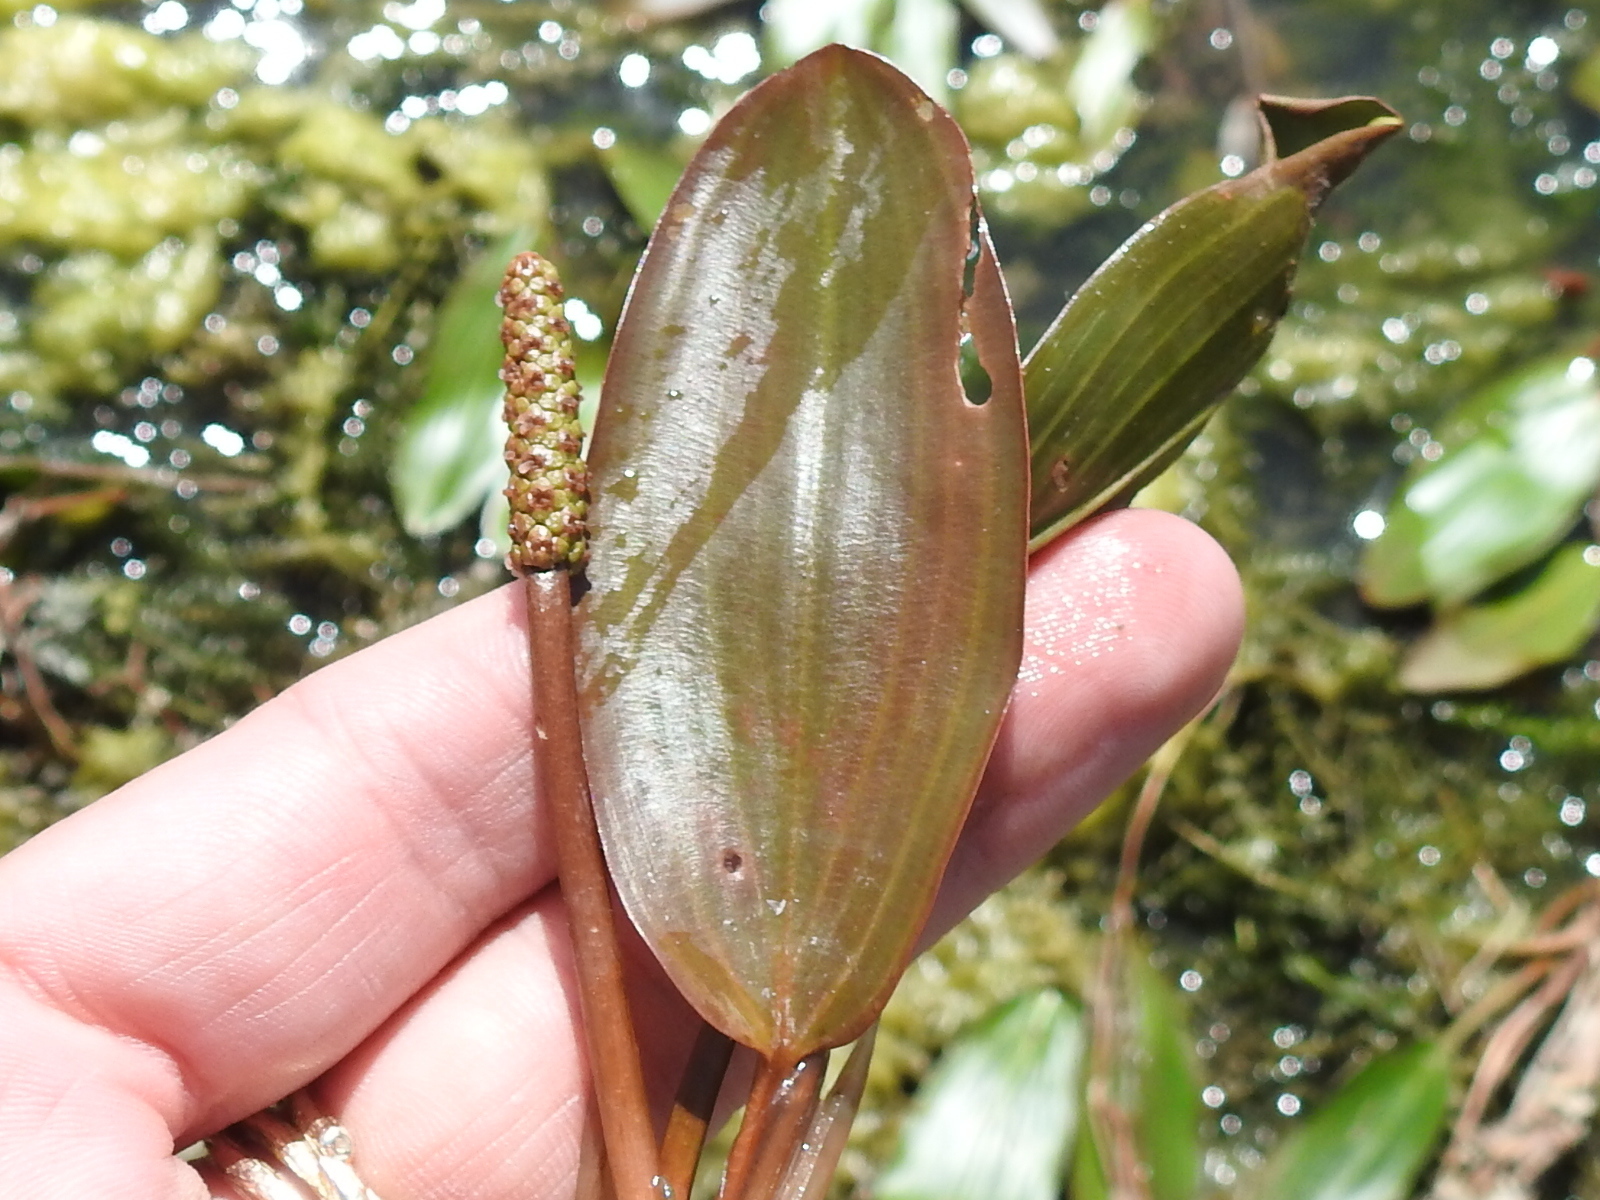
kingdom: Plantae
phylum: Tracheophyta
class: Liliopsida
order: Alismatales
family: Potamogetonaceae
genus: Potamogeton
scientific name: Potamogeton nodosus
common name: Loddon pondweed
